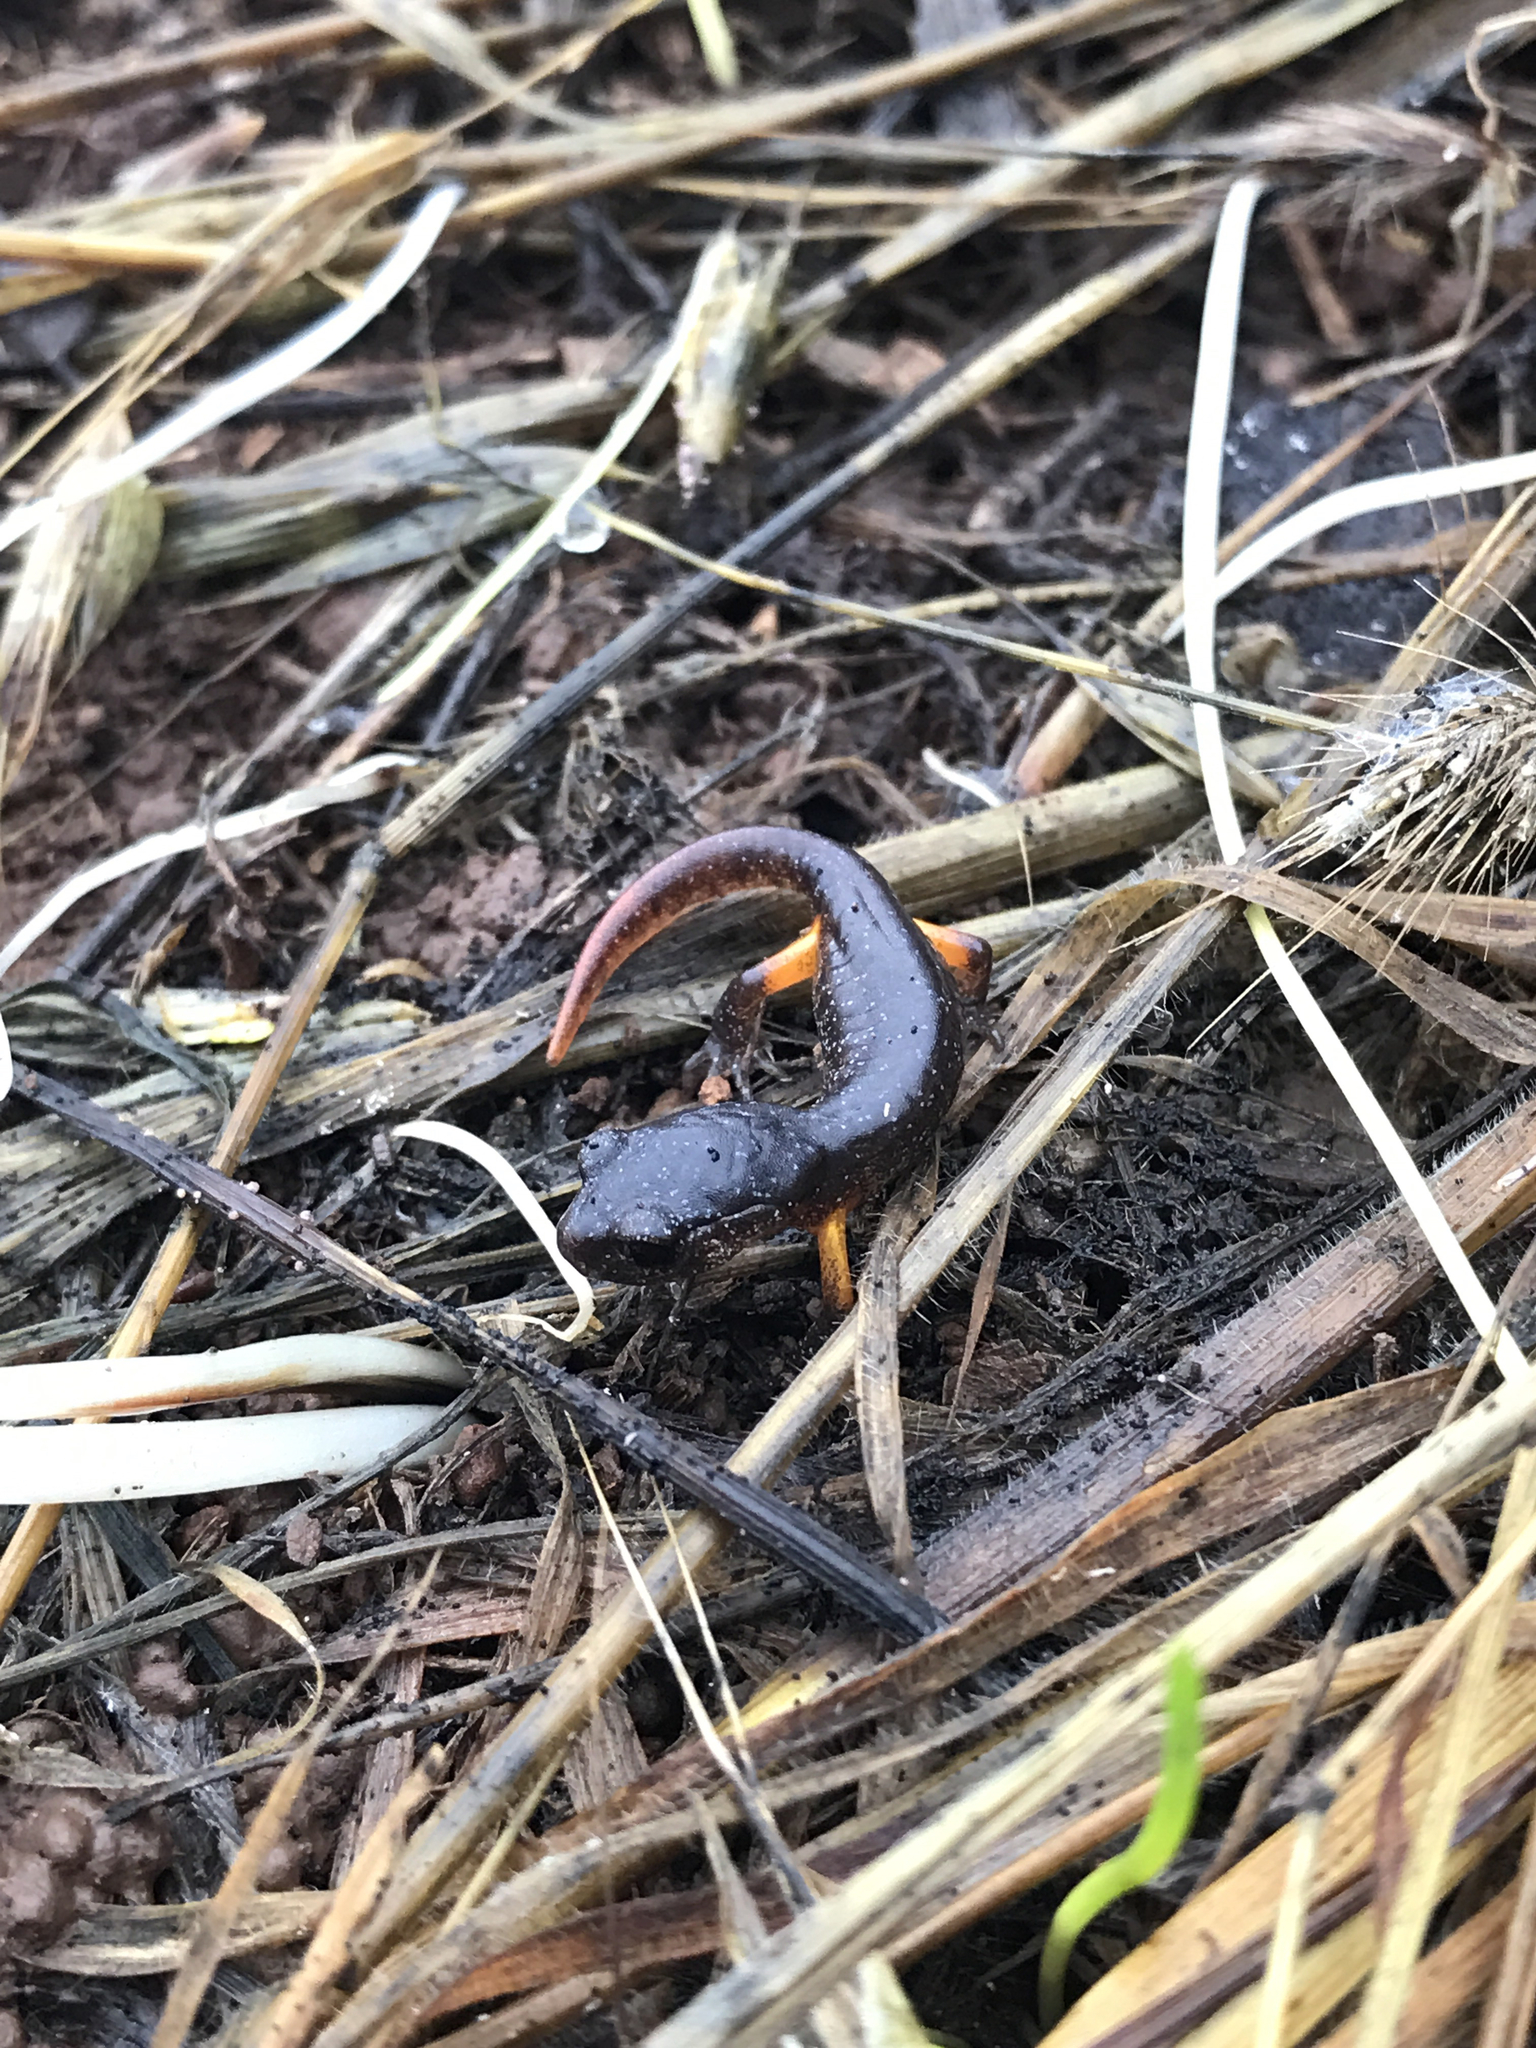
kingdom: Animalia
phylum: Chordata
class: Amphibia
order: Caudata
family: Plethodontidae
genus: Ensatina
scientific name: Ensatina eschscholtzii
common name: Ensatina
